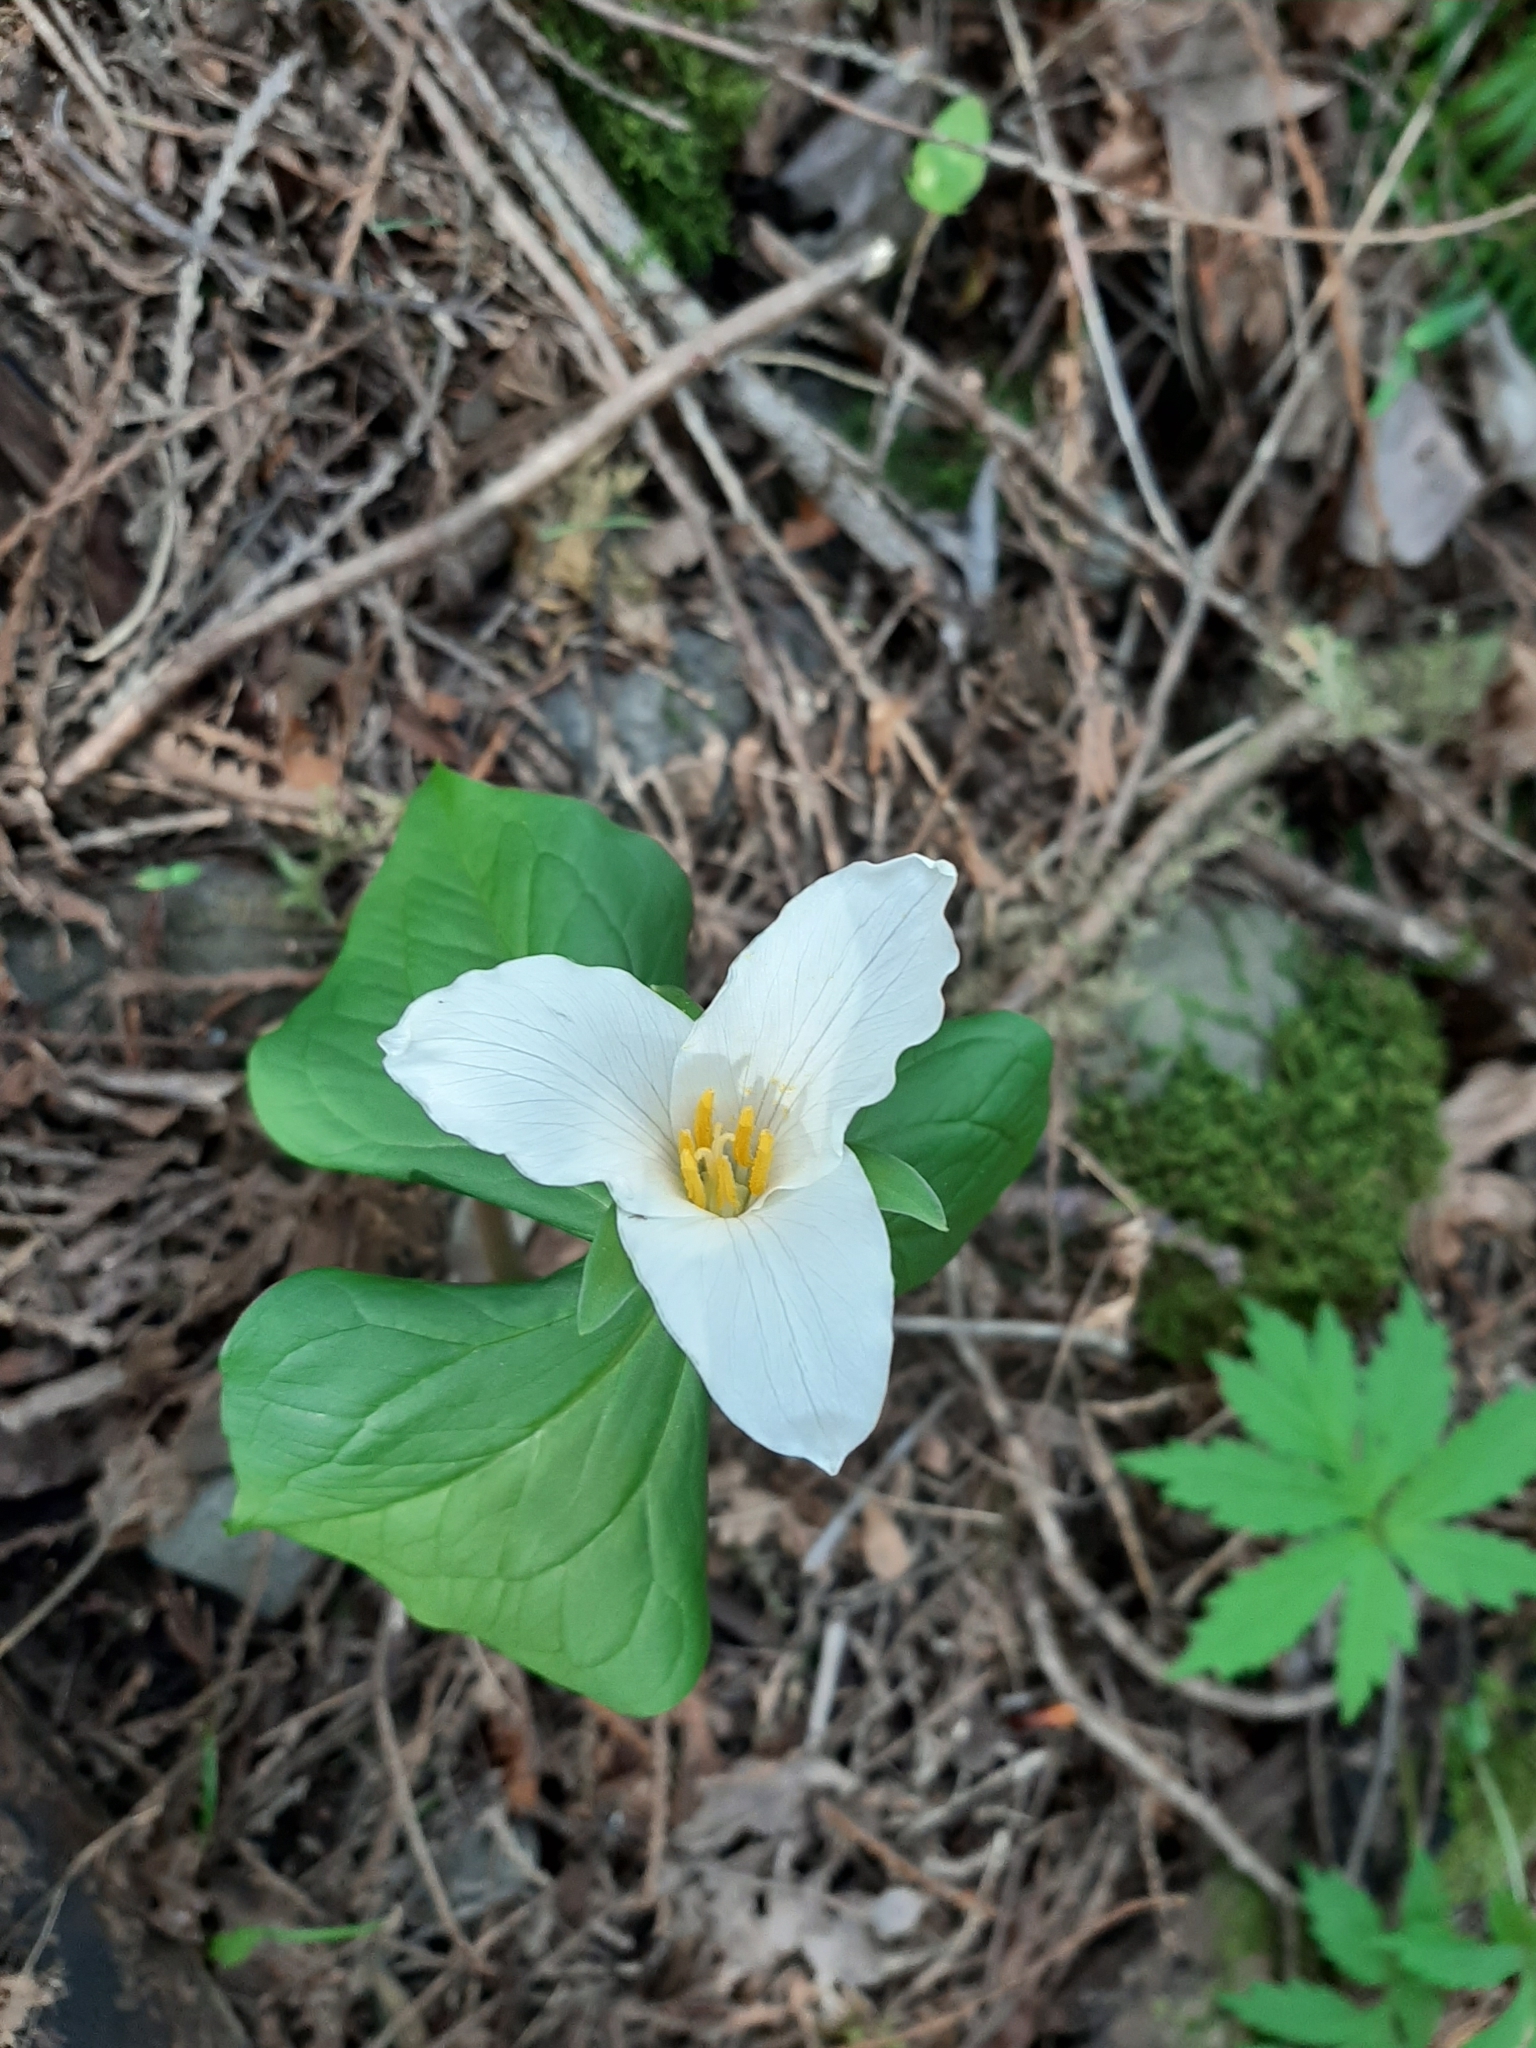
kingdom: Plantae
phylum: Tracheophyta
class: Liliopsida
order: Liliales
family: Melanthiaceae
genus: Trillium
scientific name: Trillium ovatum
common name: Pacific trillium
